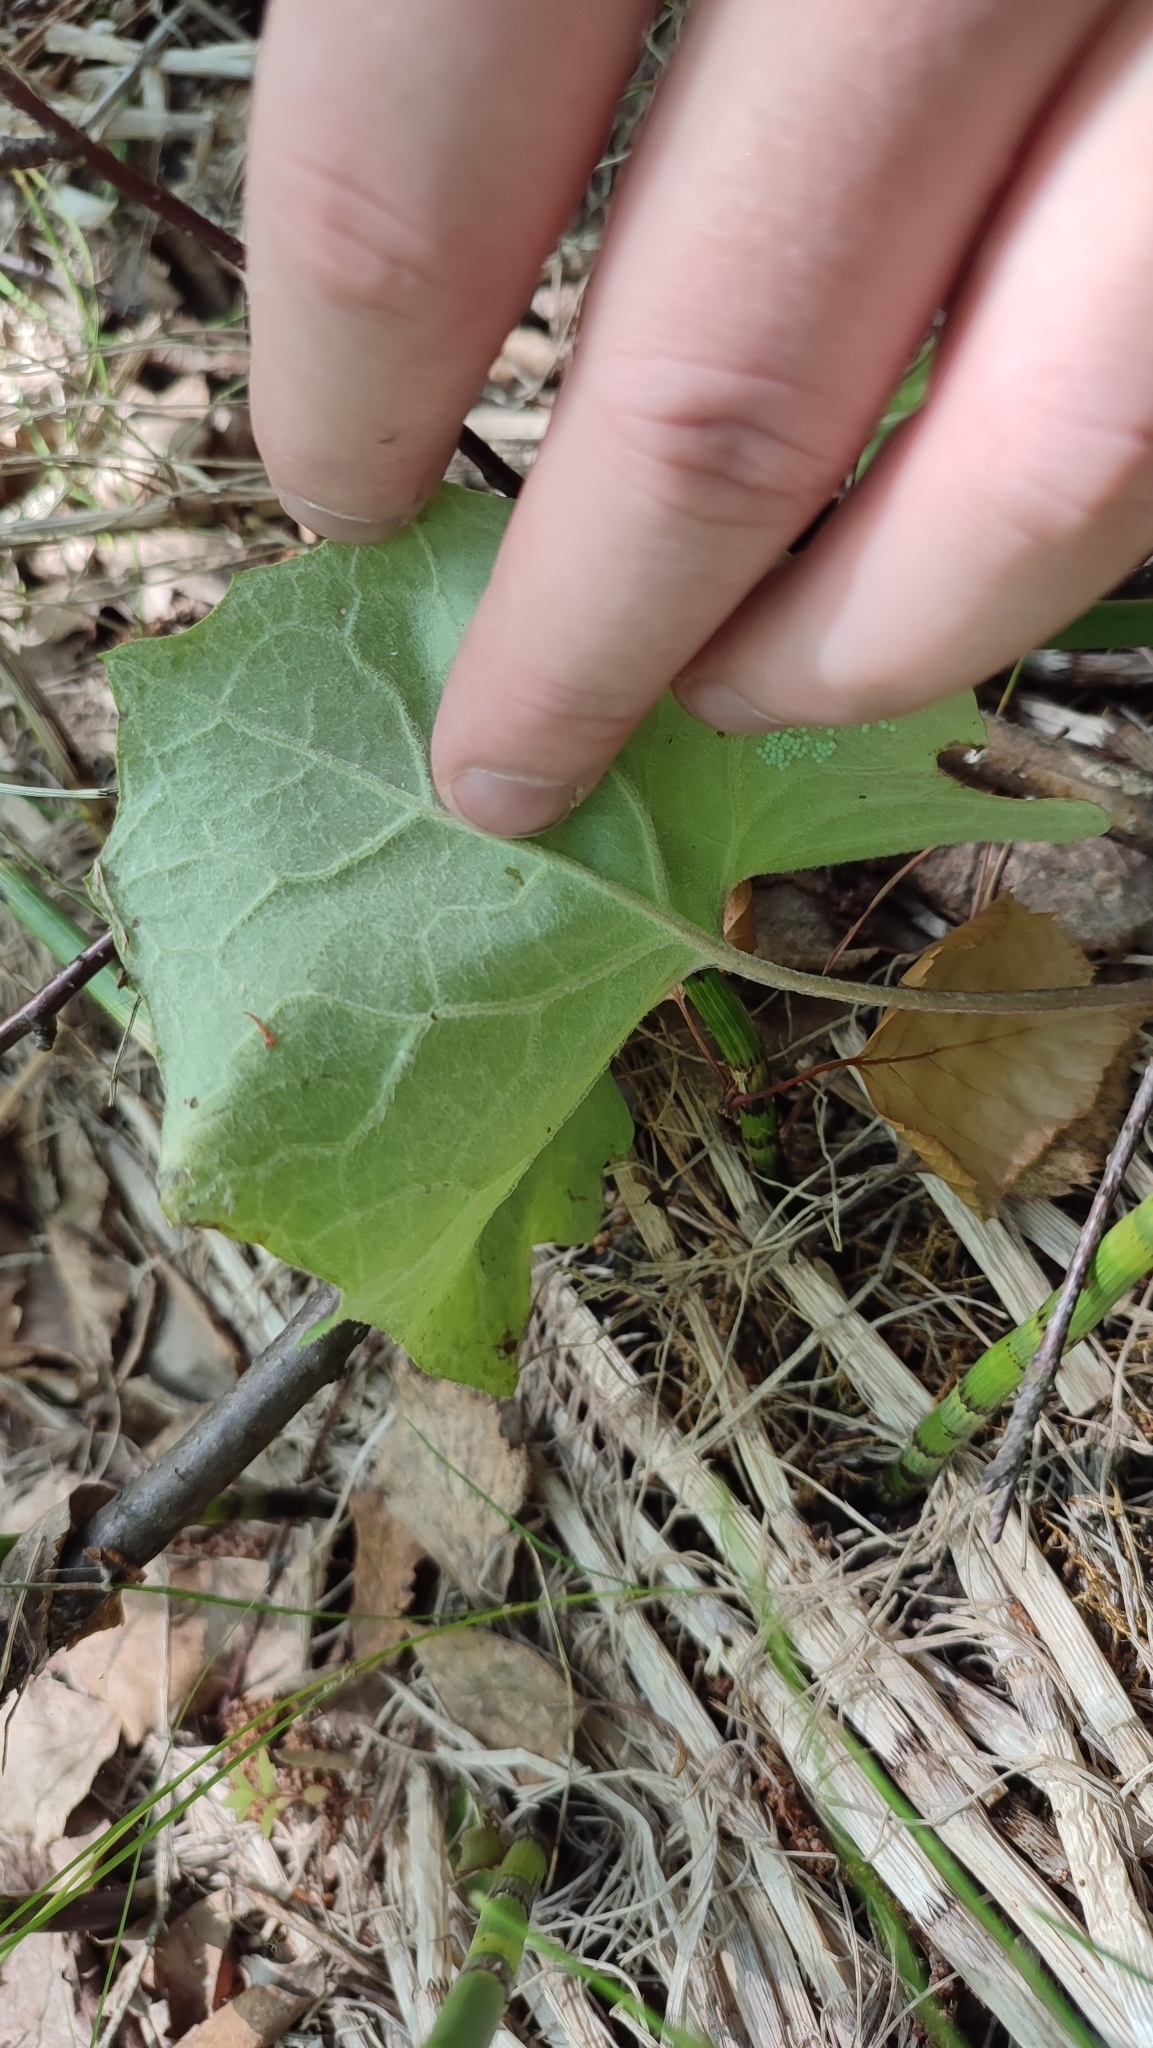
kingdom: Plantae
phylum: Tracheophyta
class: Magnoliopsida
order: Asterales
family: Asteraceae
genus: Petasites
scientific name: Petasites frigidus
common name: Arctic butterbur
